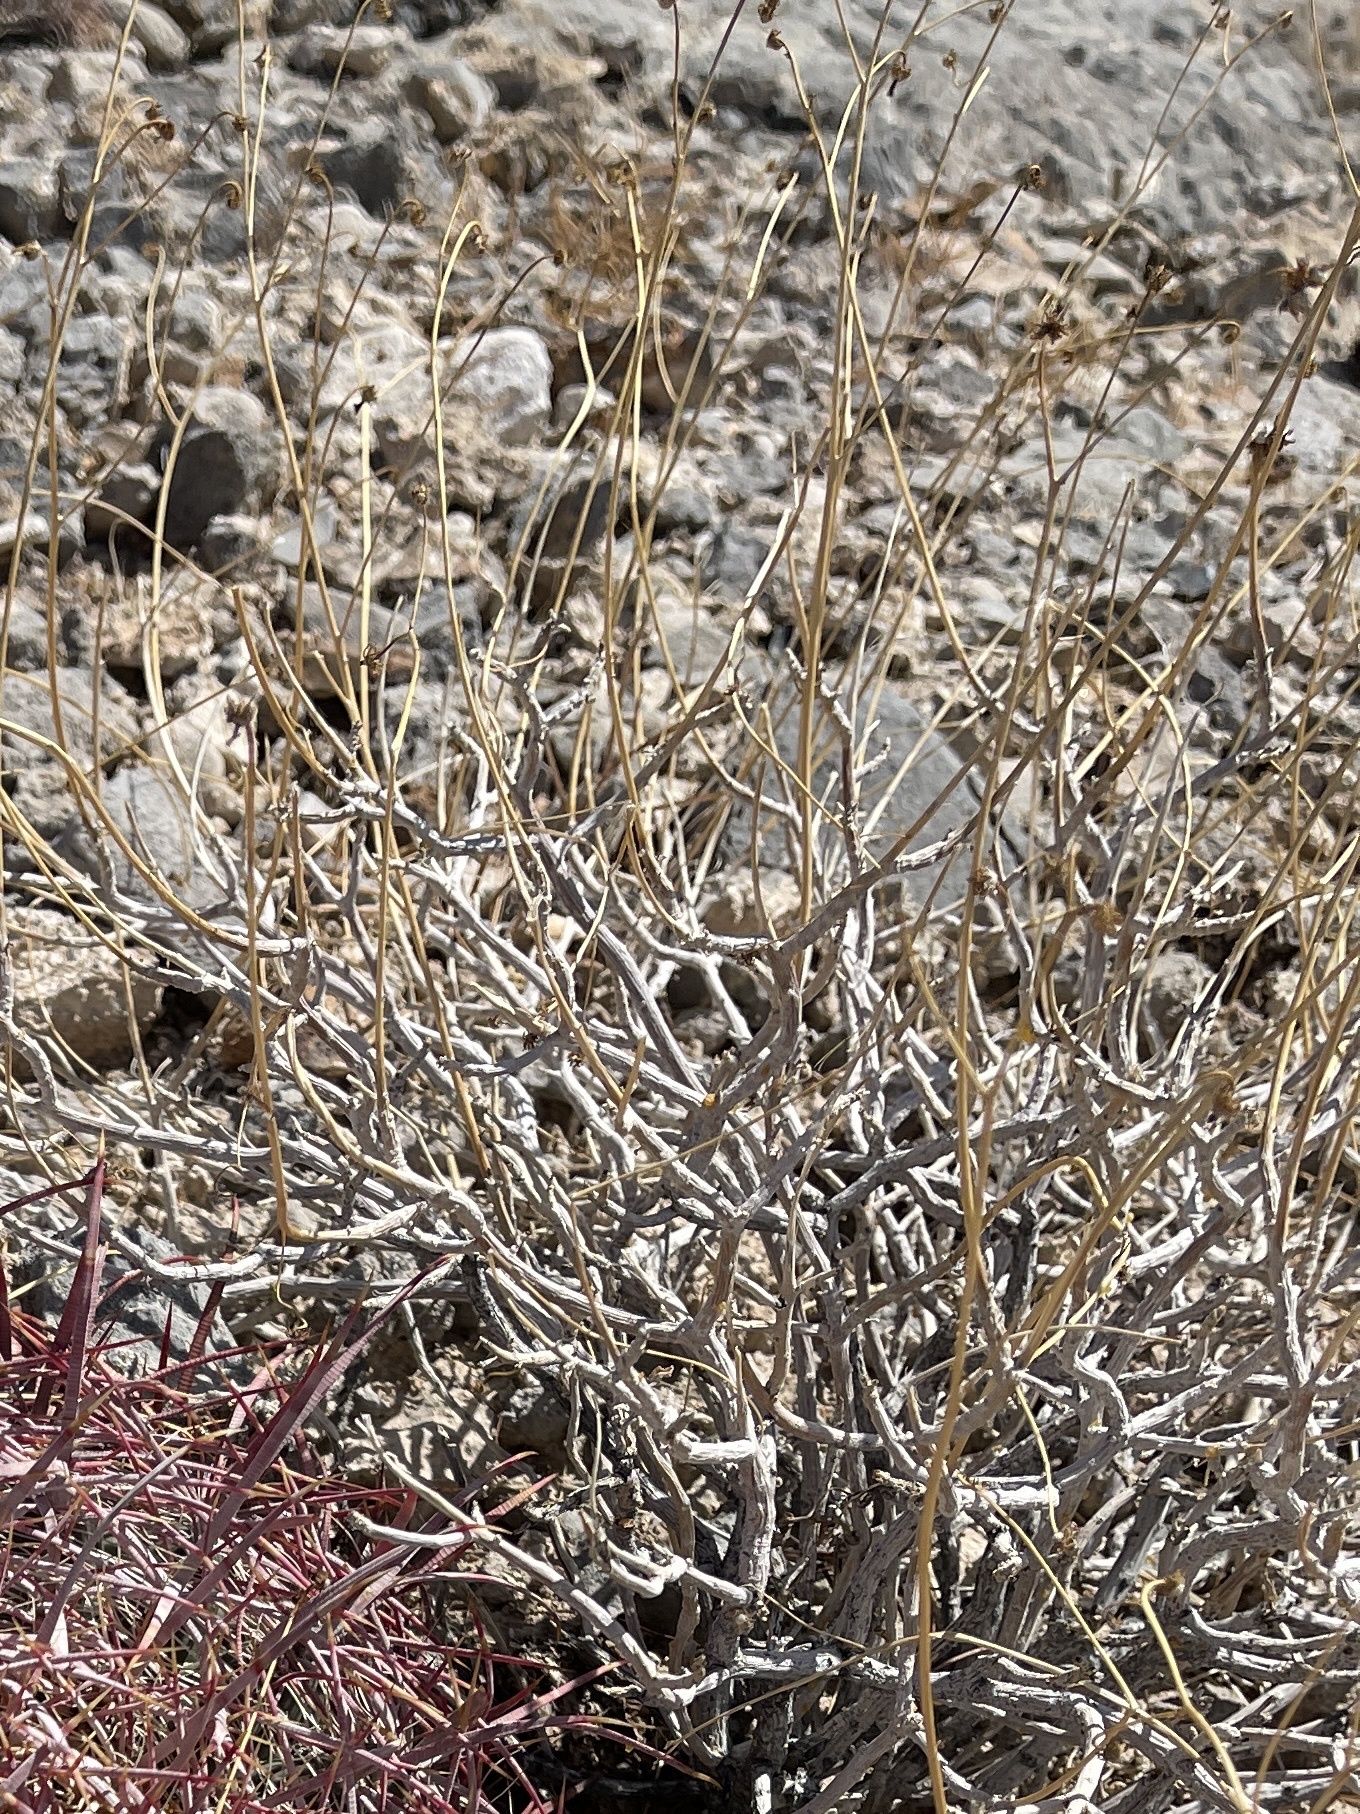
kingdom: Plantae
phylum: Tracheophyta
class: Magnoliopsida
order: Asterales
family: Asteraceae
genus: Encelia
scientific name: Encelia farinosa
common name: Brittlebush
